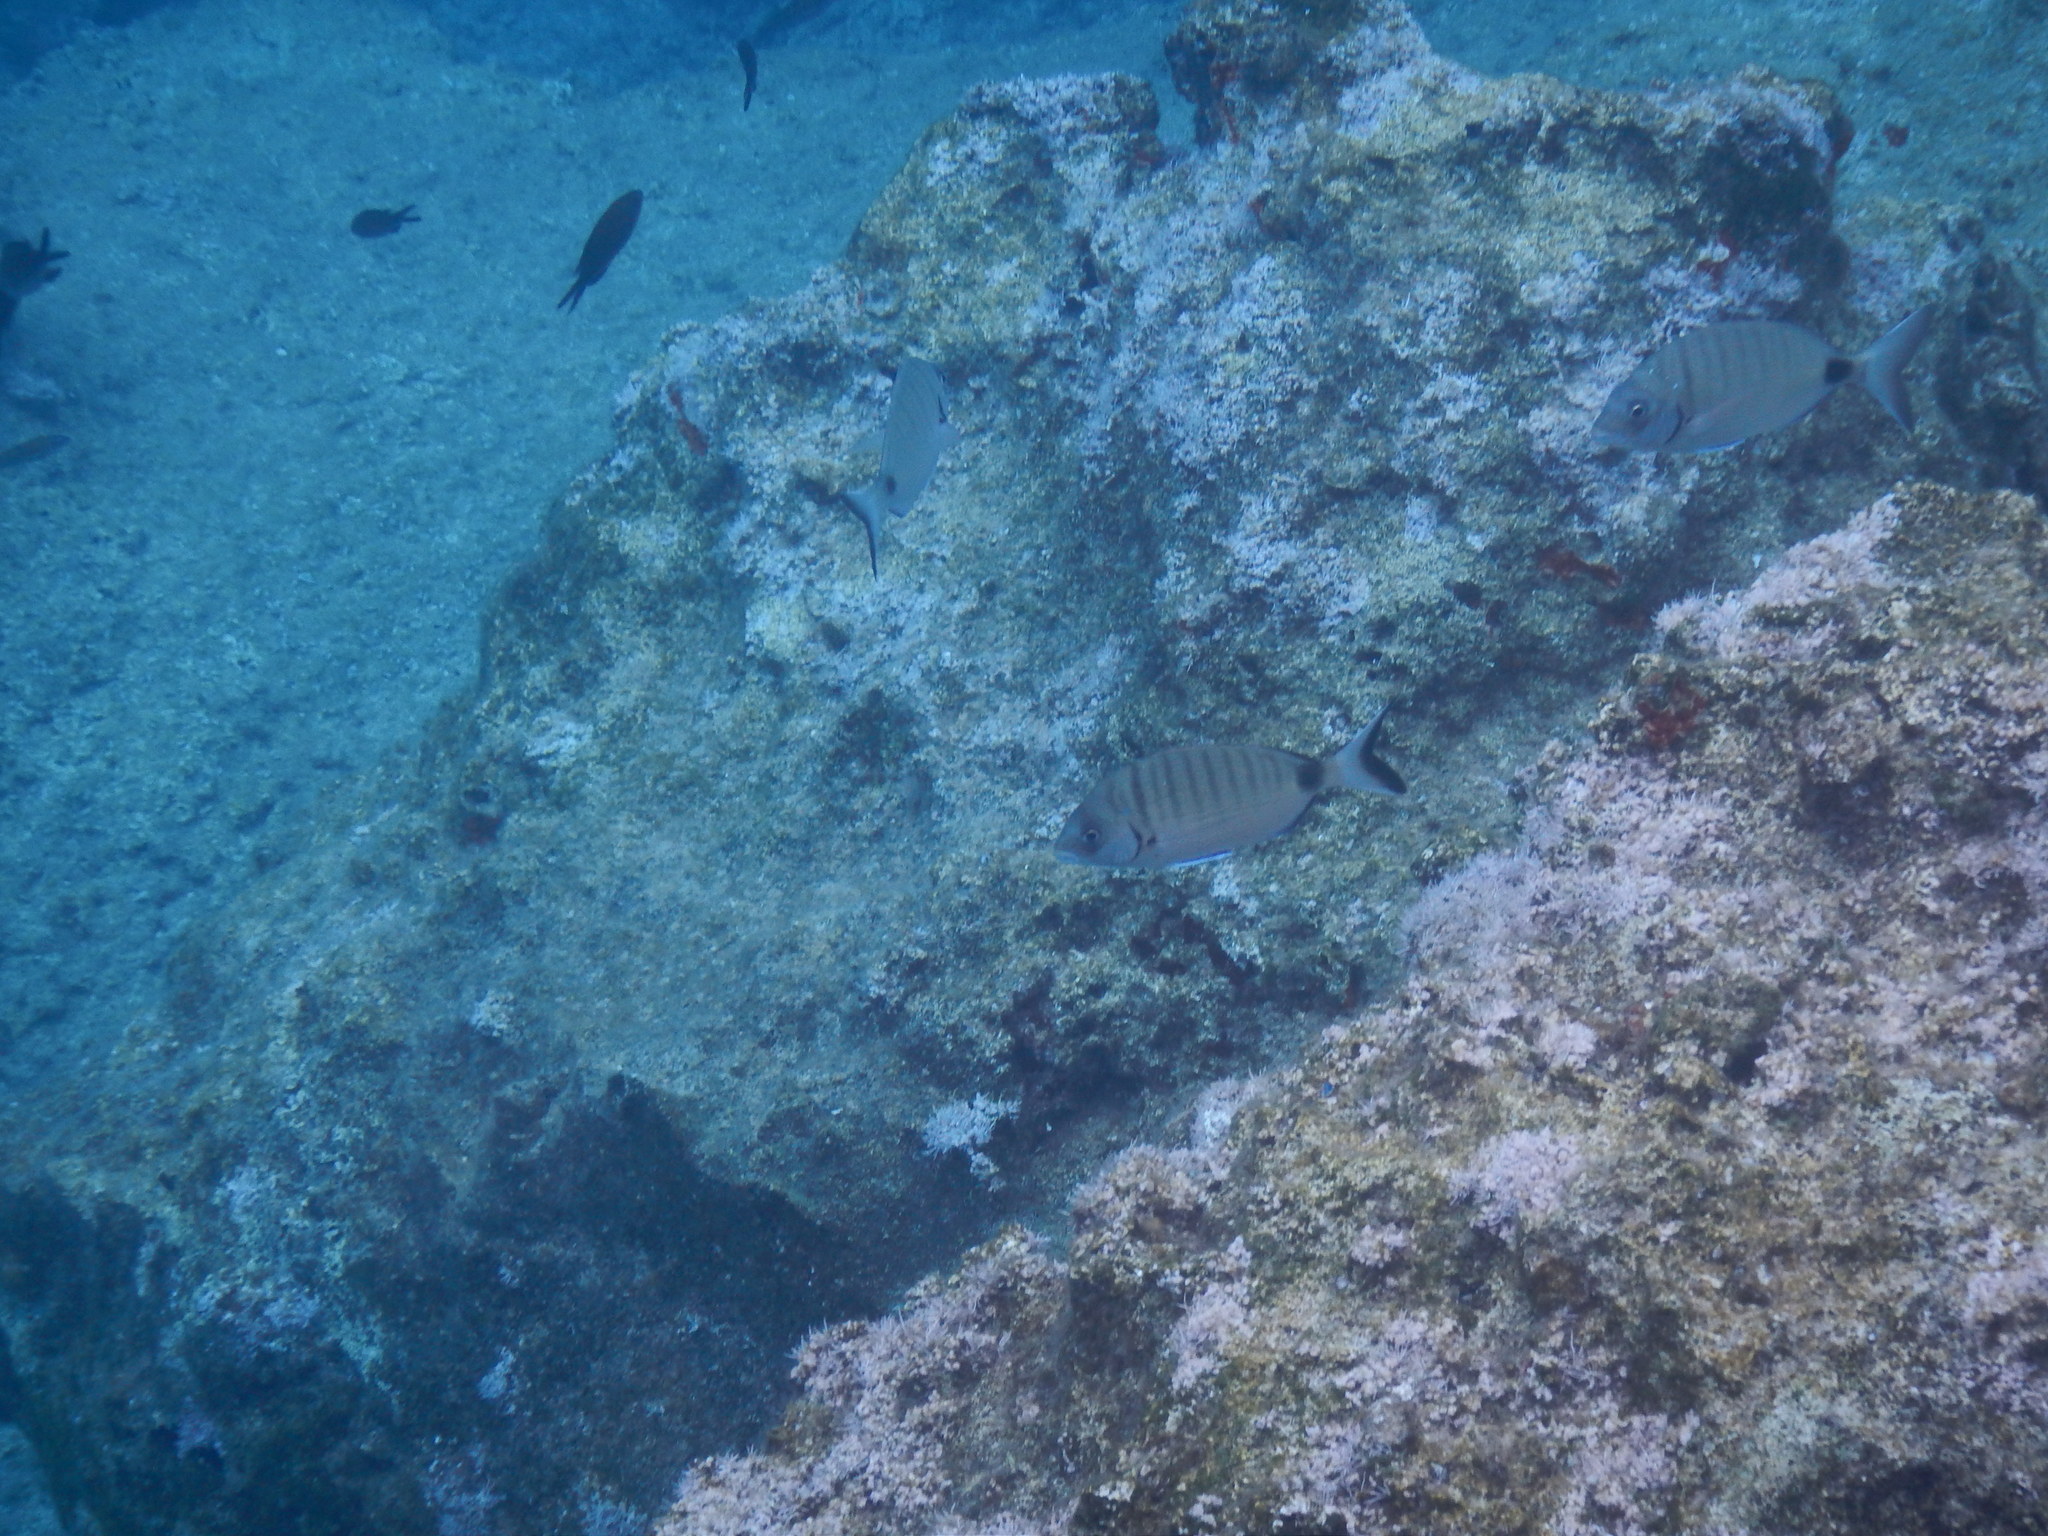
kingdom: Animalia
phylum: Chordata
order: Perciformes
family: Sparidae
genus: Diplodus
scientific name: Diplodus sargus
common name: White seabream
